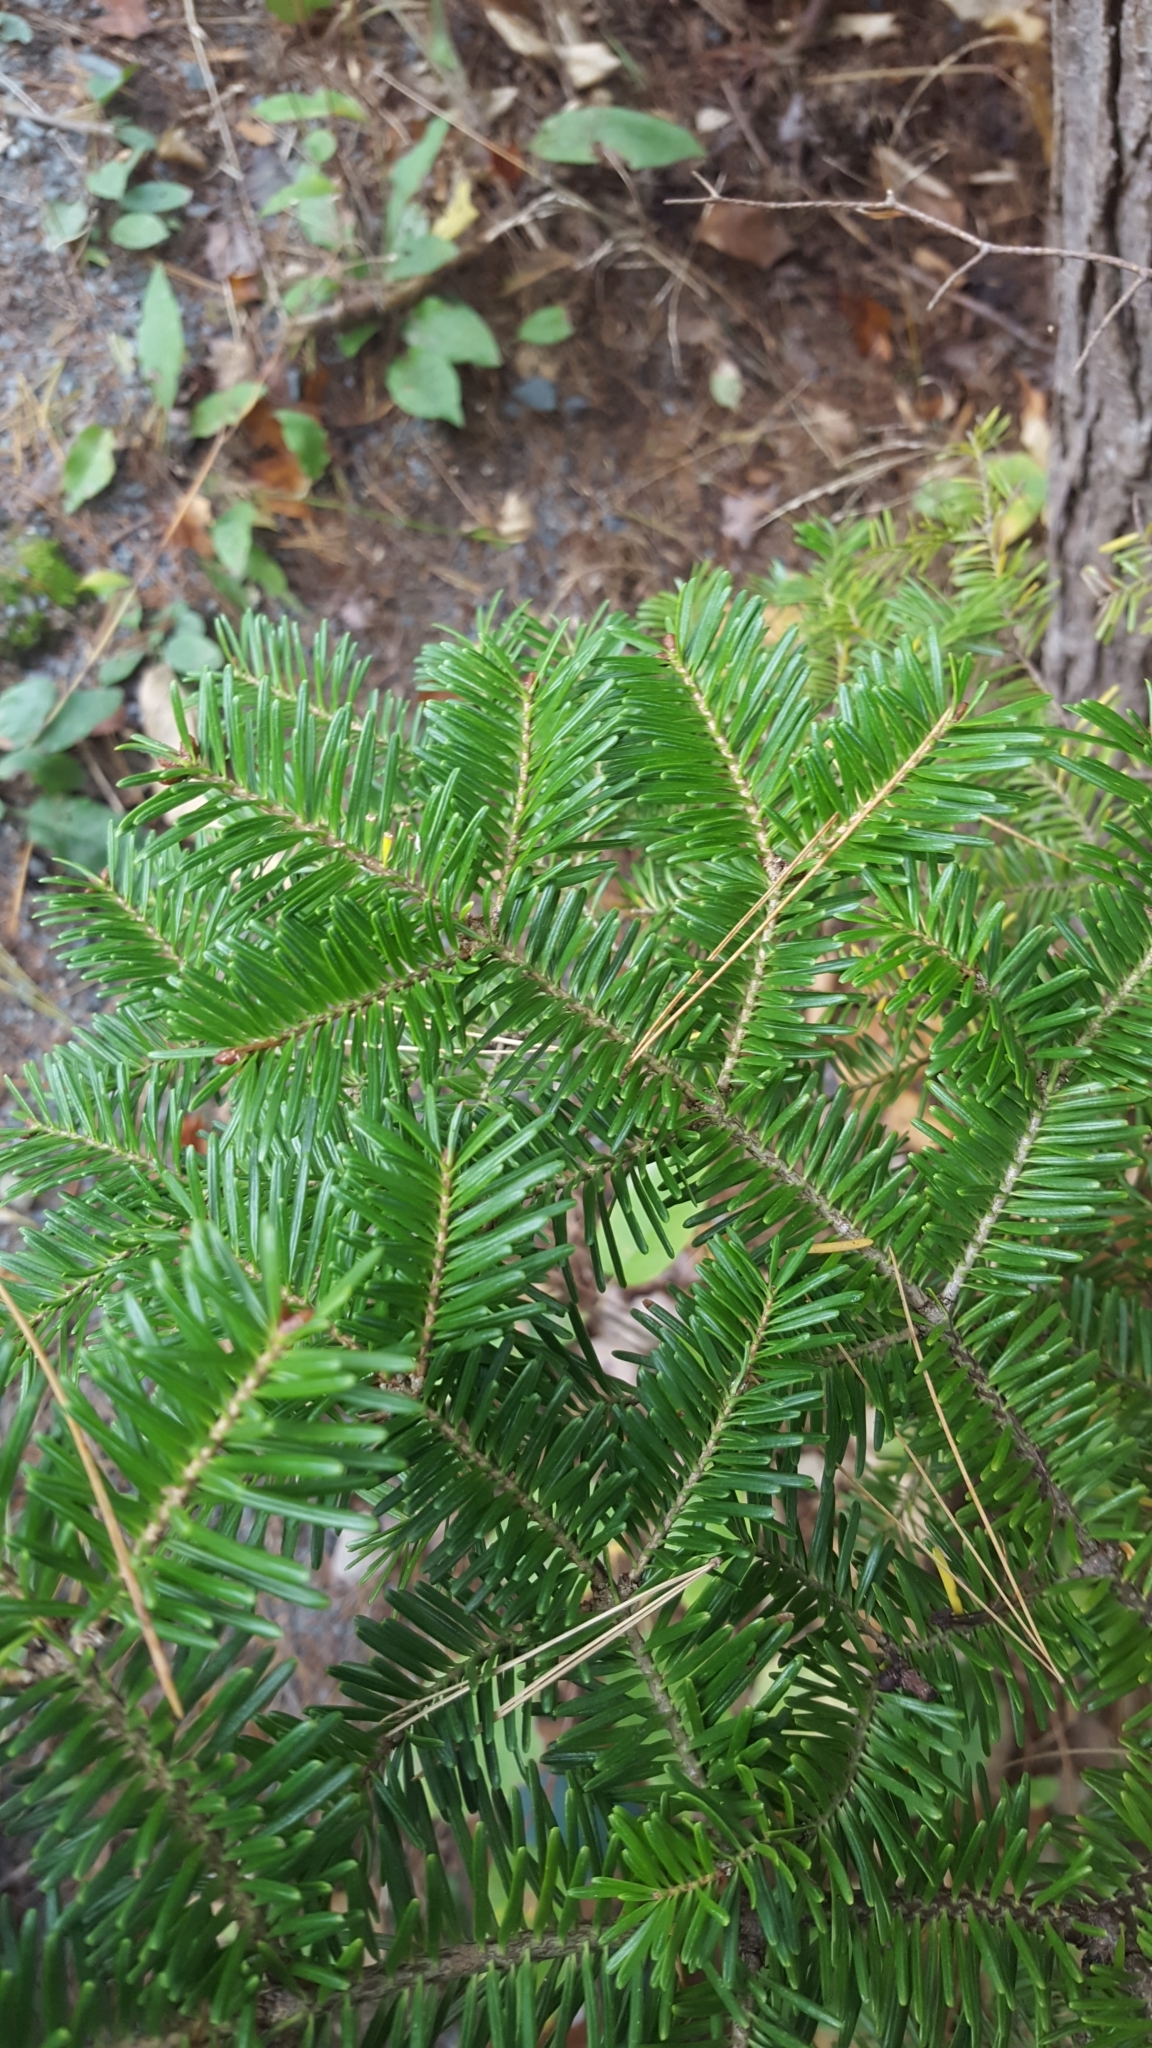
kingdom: Plantae
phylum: Tracheophyta
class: Pinopsida
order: Pinales
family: Pinaceae
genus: Abies
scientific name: Abies balsamea
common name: Balsam fir
